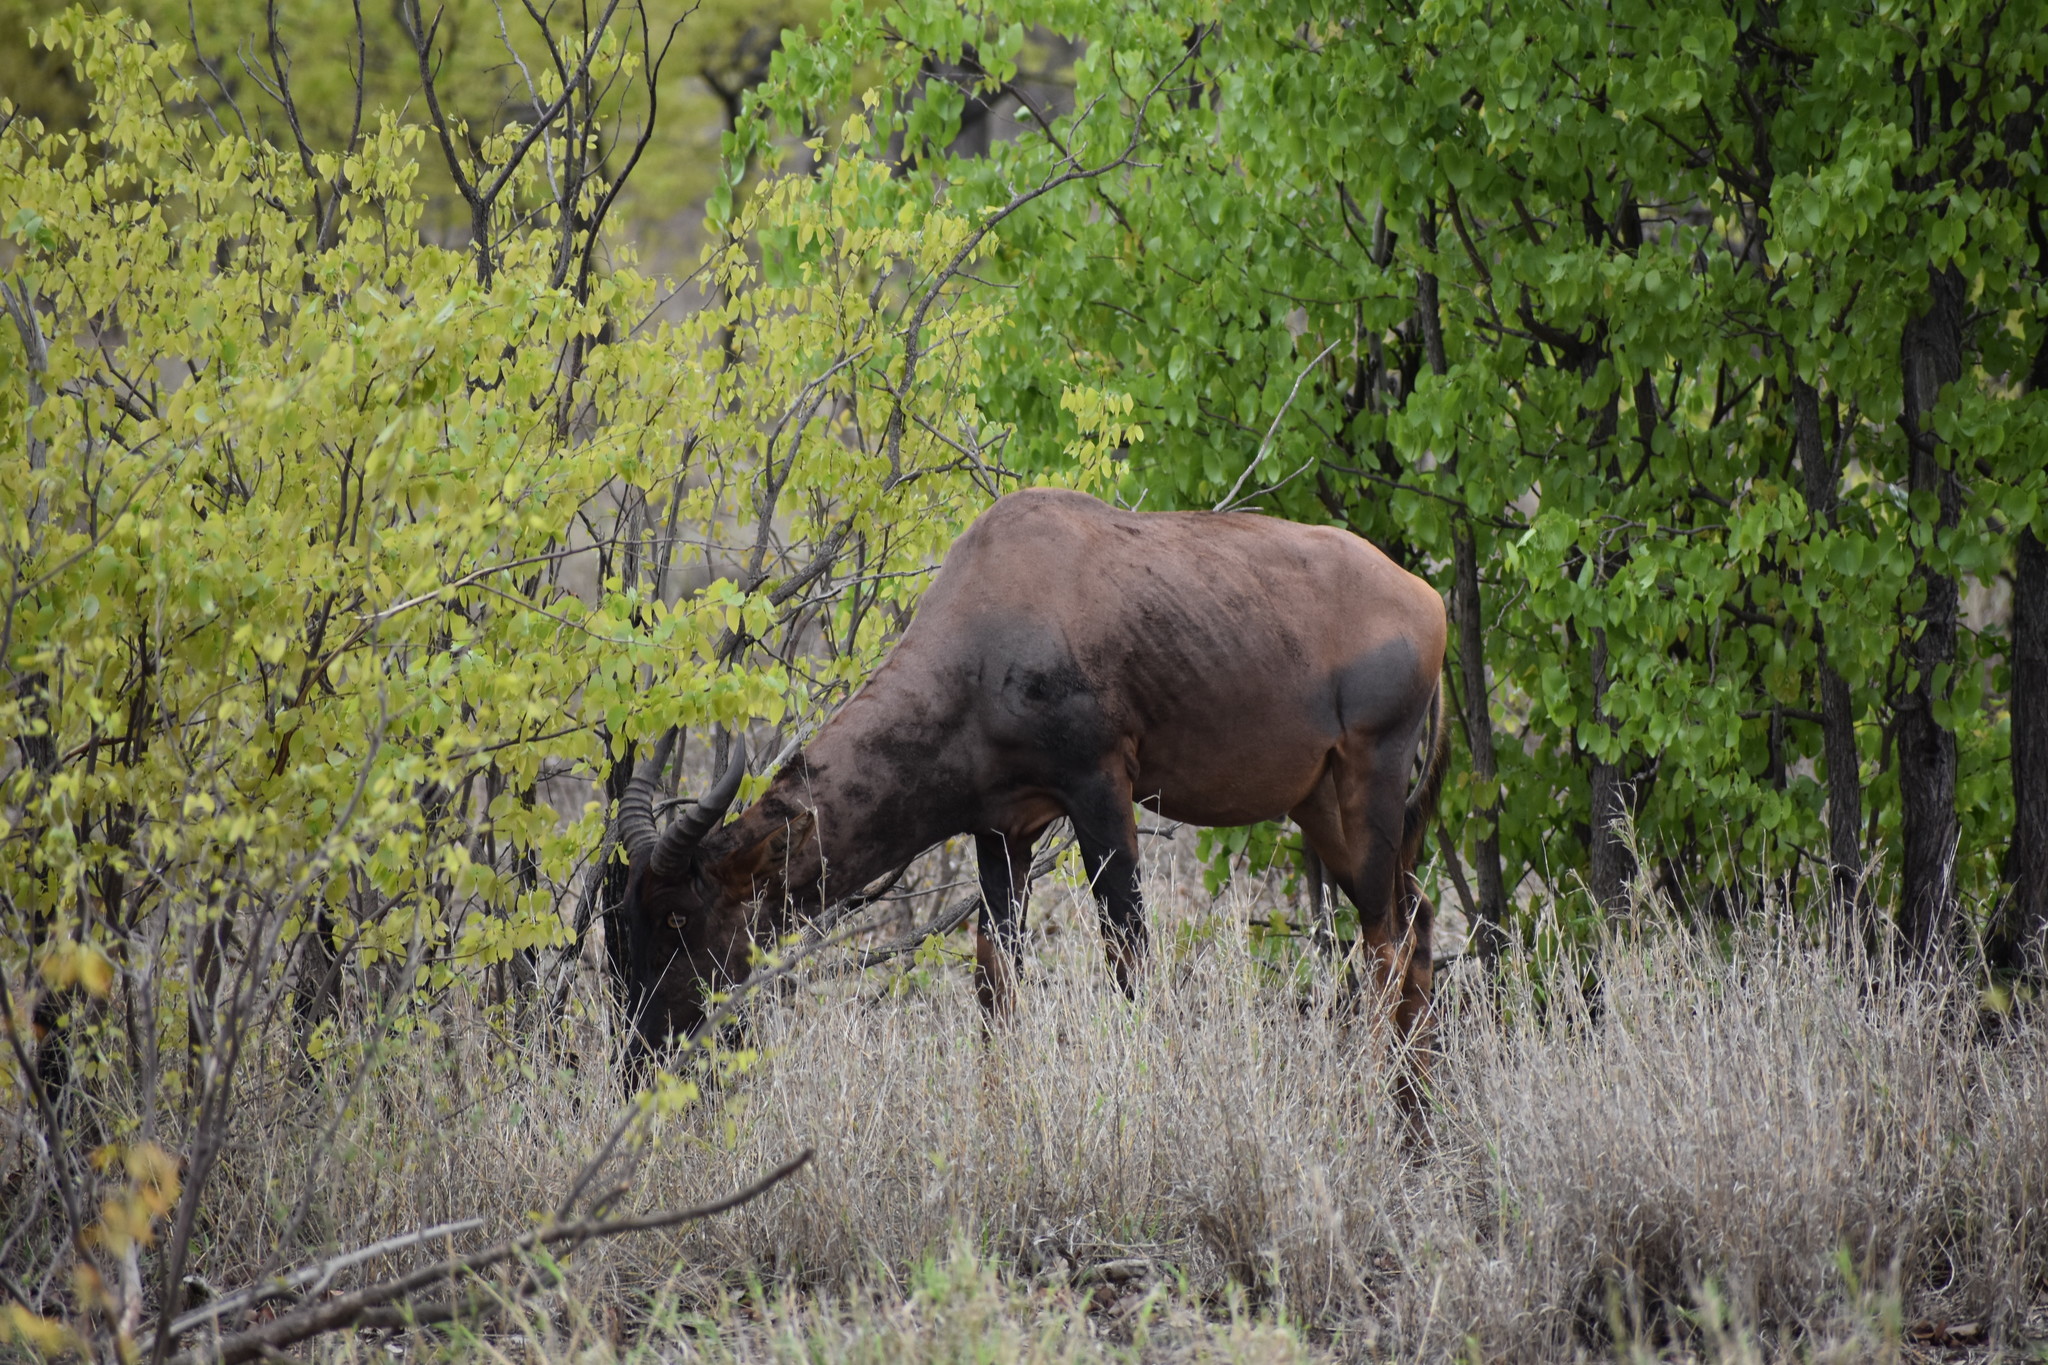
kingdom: Animalia
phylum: Chordata
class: Mammalia
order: Artiodactyla
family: Bovidae
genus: Damaliscus
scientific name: Damaliscus lunatus
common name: Common tsessebe
